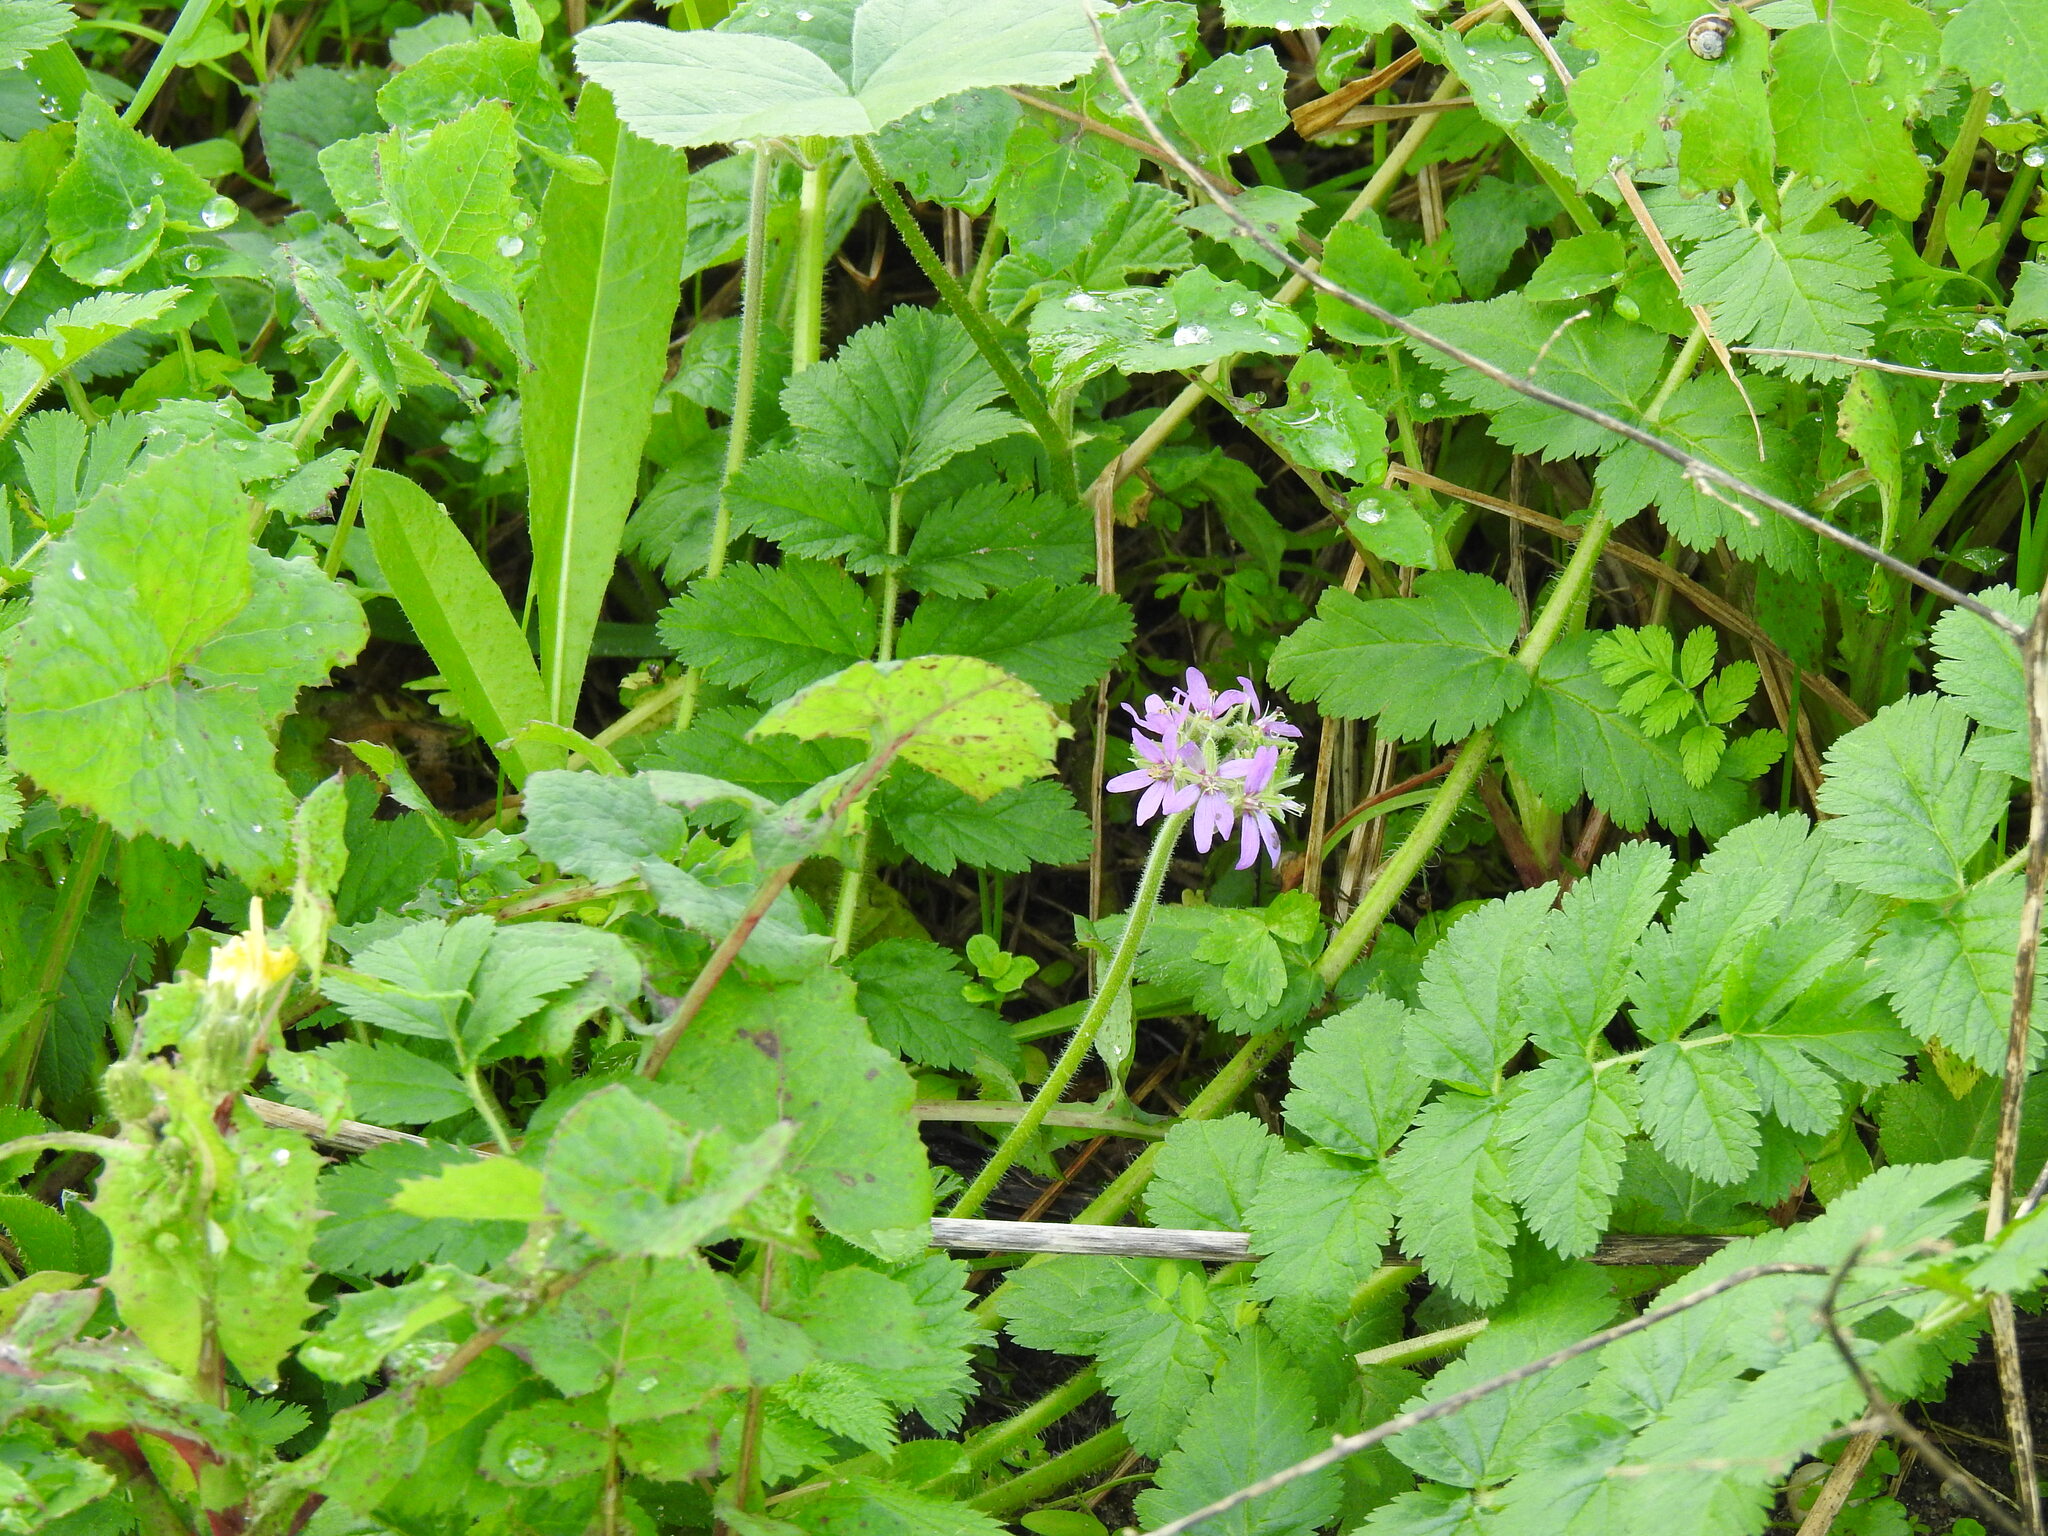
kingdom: Plantae
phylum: Tracheophyta
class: Magnoliopsida
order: Geraniales
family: Geraniaceae
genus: Erodium
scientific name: Erodium moschatum
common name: Musk stork's-bill
